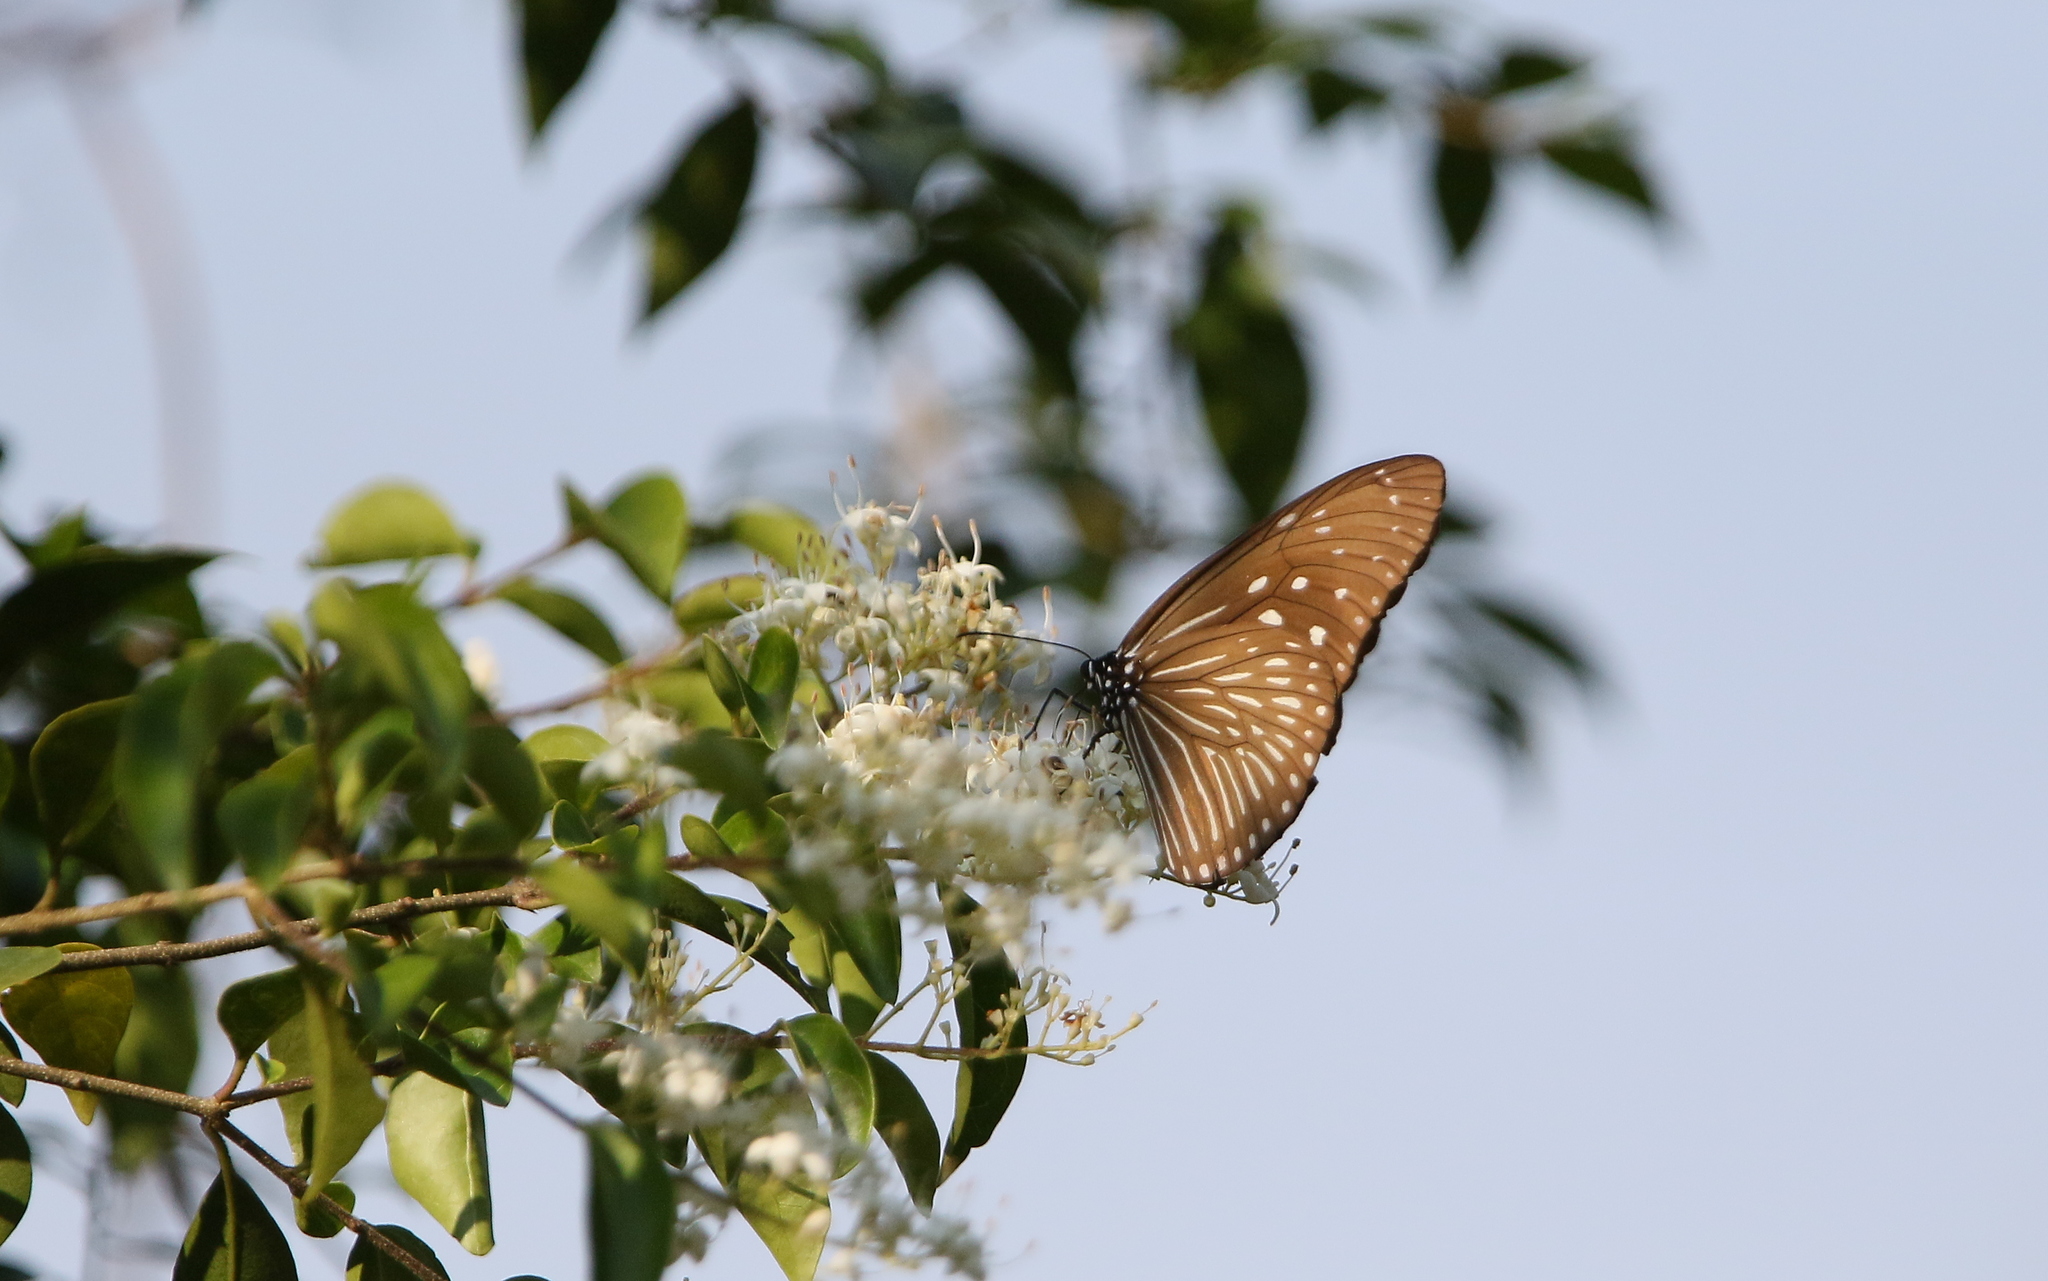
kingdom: Animalia
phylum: Arthropoda
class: Insecta
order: Lepidoptera
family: Nymphalidae
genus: Euploea
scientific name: Euploea mulciber
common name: Striped blue crow butterfly
